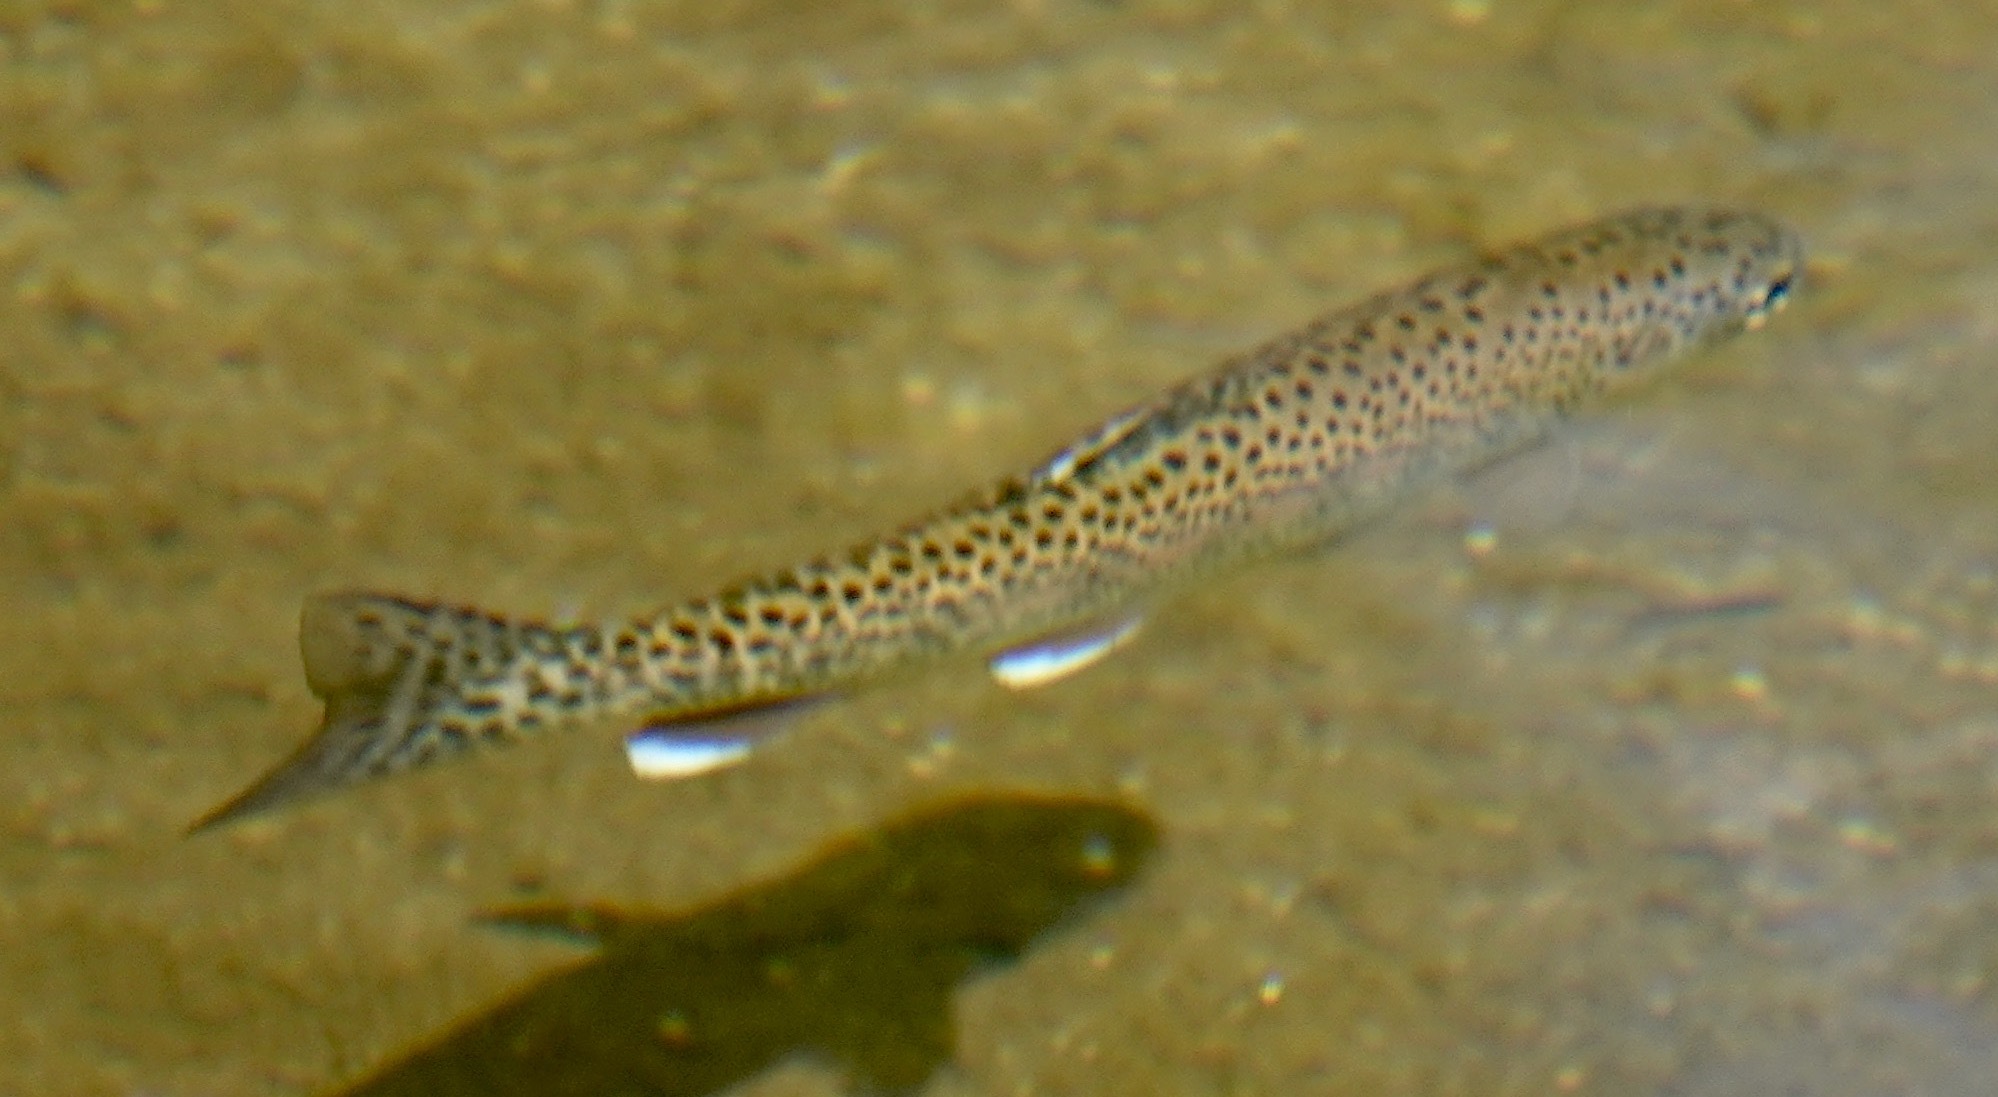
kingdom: Animalia
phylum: Chordata
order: Salmoniformes
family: Salmonidae
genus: Oncorhynchus
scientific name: Oncorhynchus mykiss
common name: Rainbow trout
